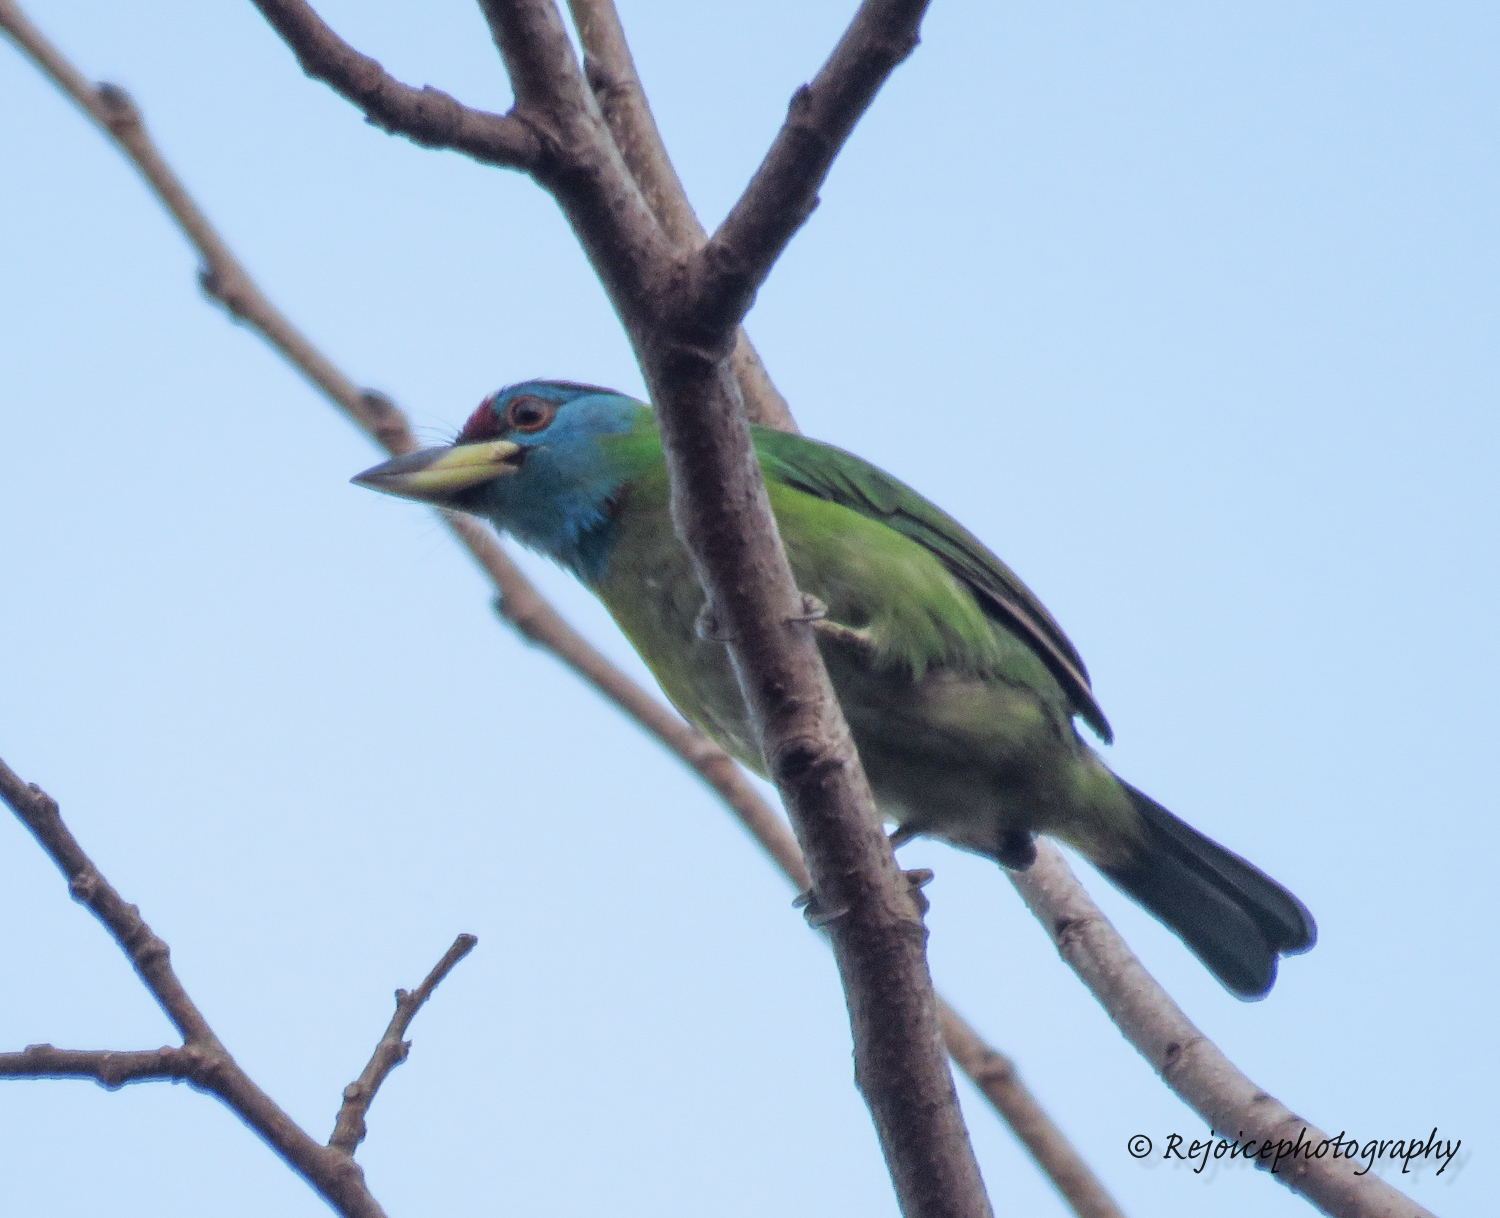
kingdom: Animalia
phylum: Chordata
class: Aves
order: Piciformes
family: Megalaimidae
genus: Psilopogon
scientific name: Psilopogon asiaticus
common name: Blue-throated barbet
